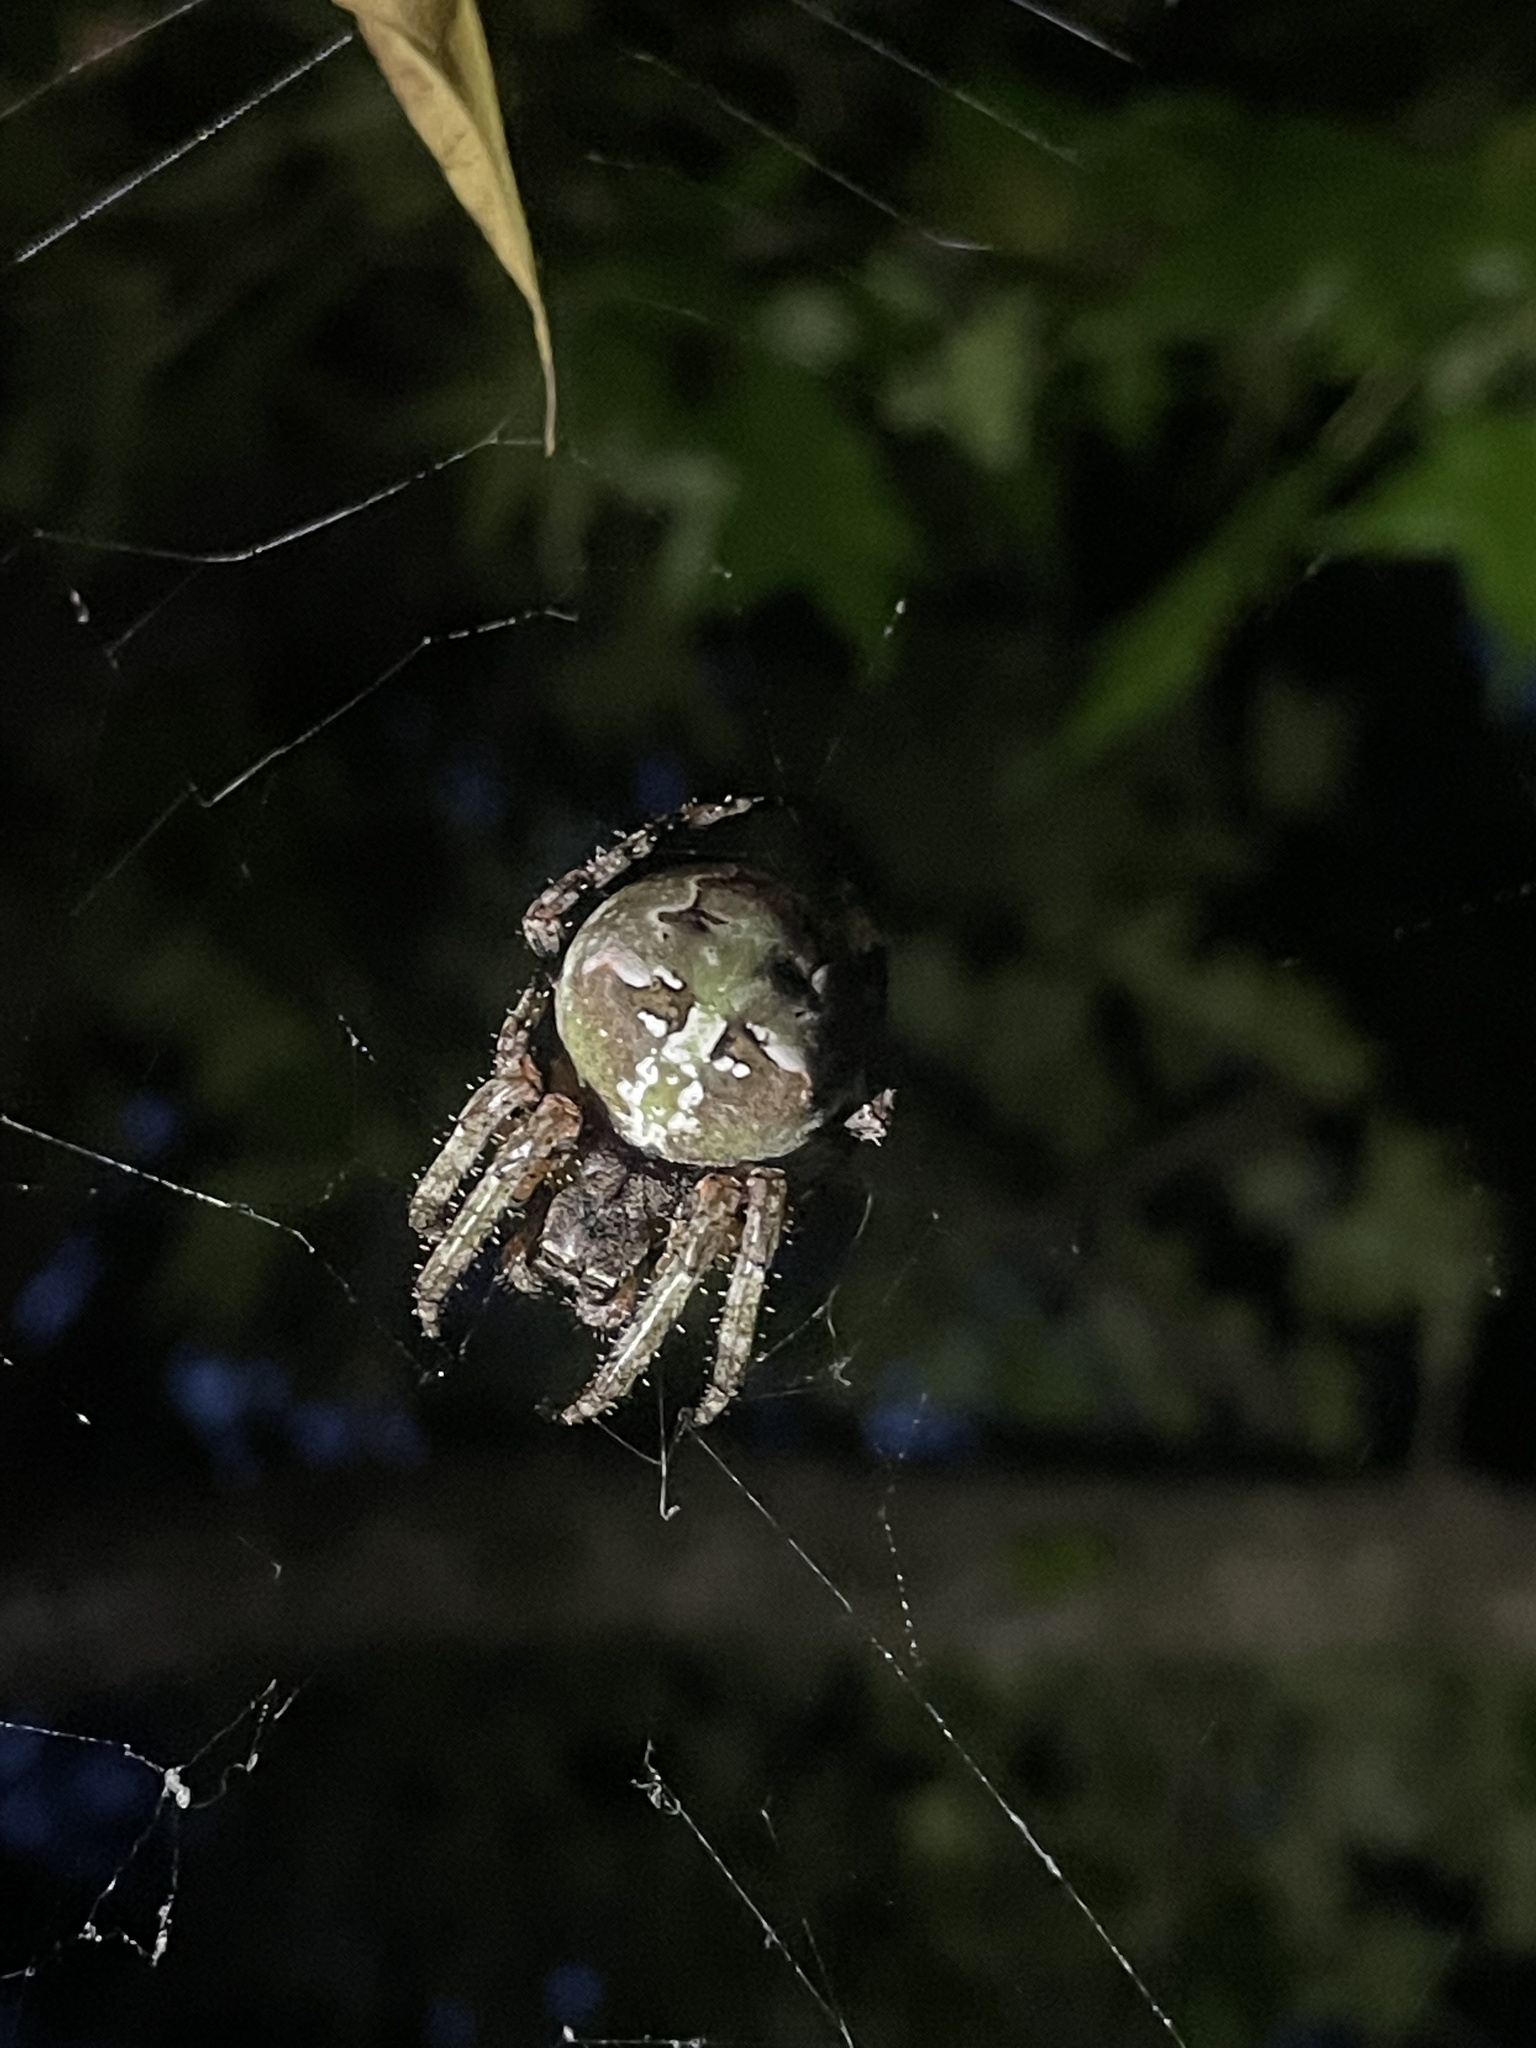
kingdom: Animalia
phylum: Arthropoda
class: Arachnida
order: Araneae
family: Araneidae
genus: Araneus
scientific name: Araneus bicentenarius
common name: Giant lichen orbweaver
